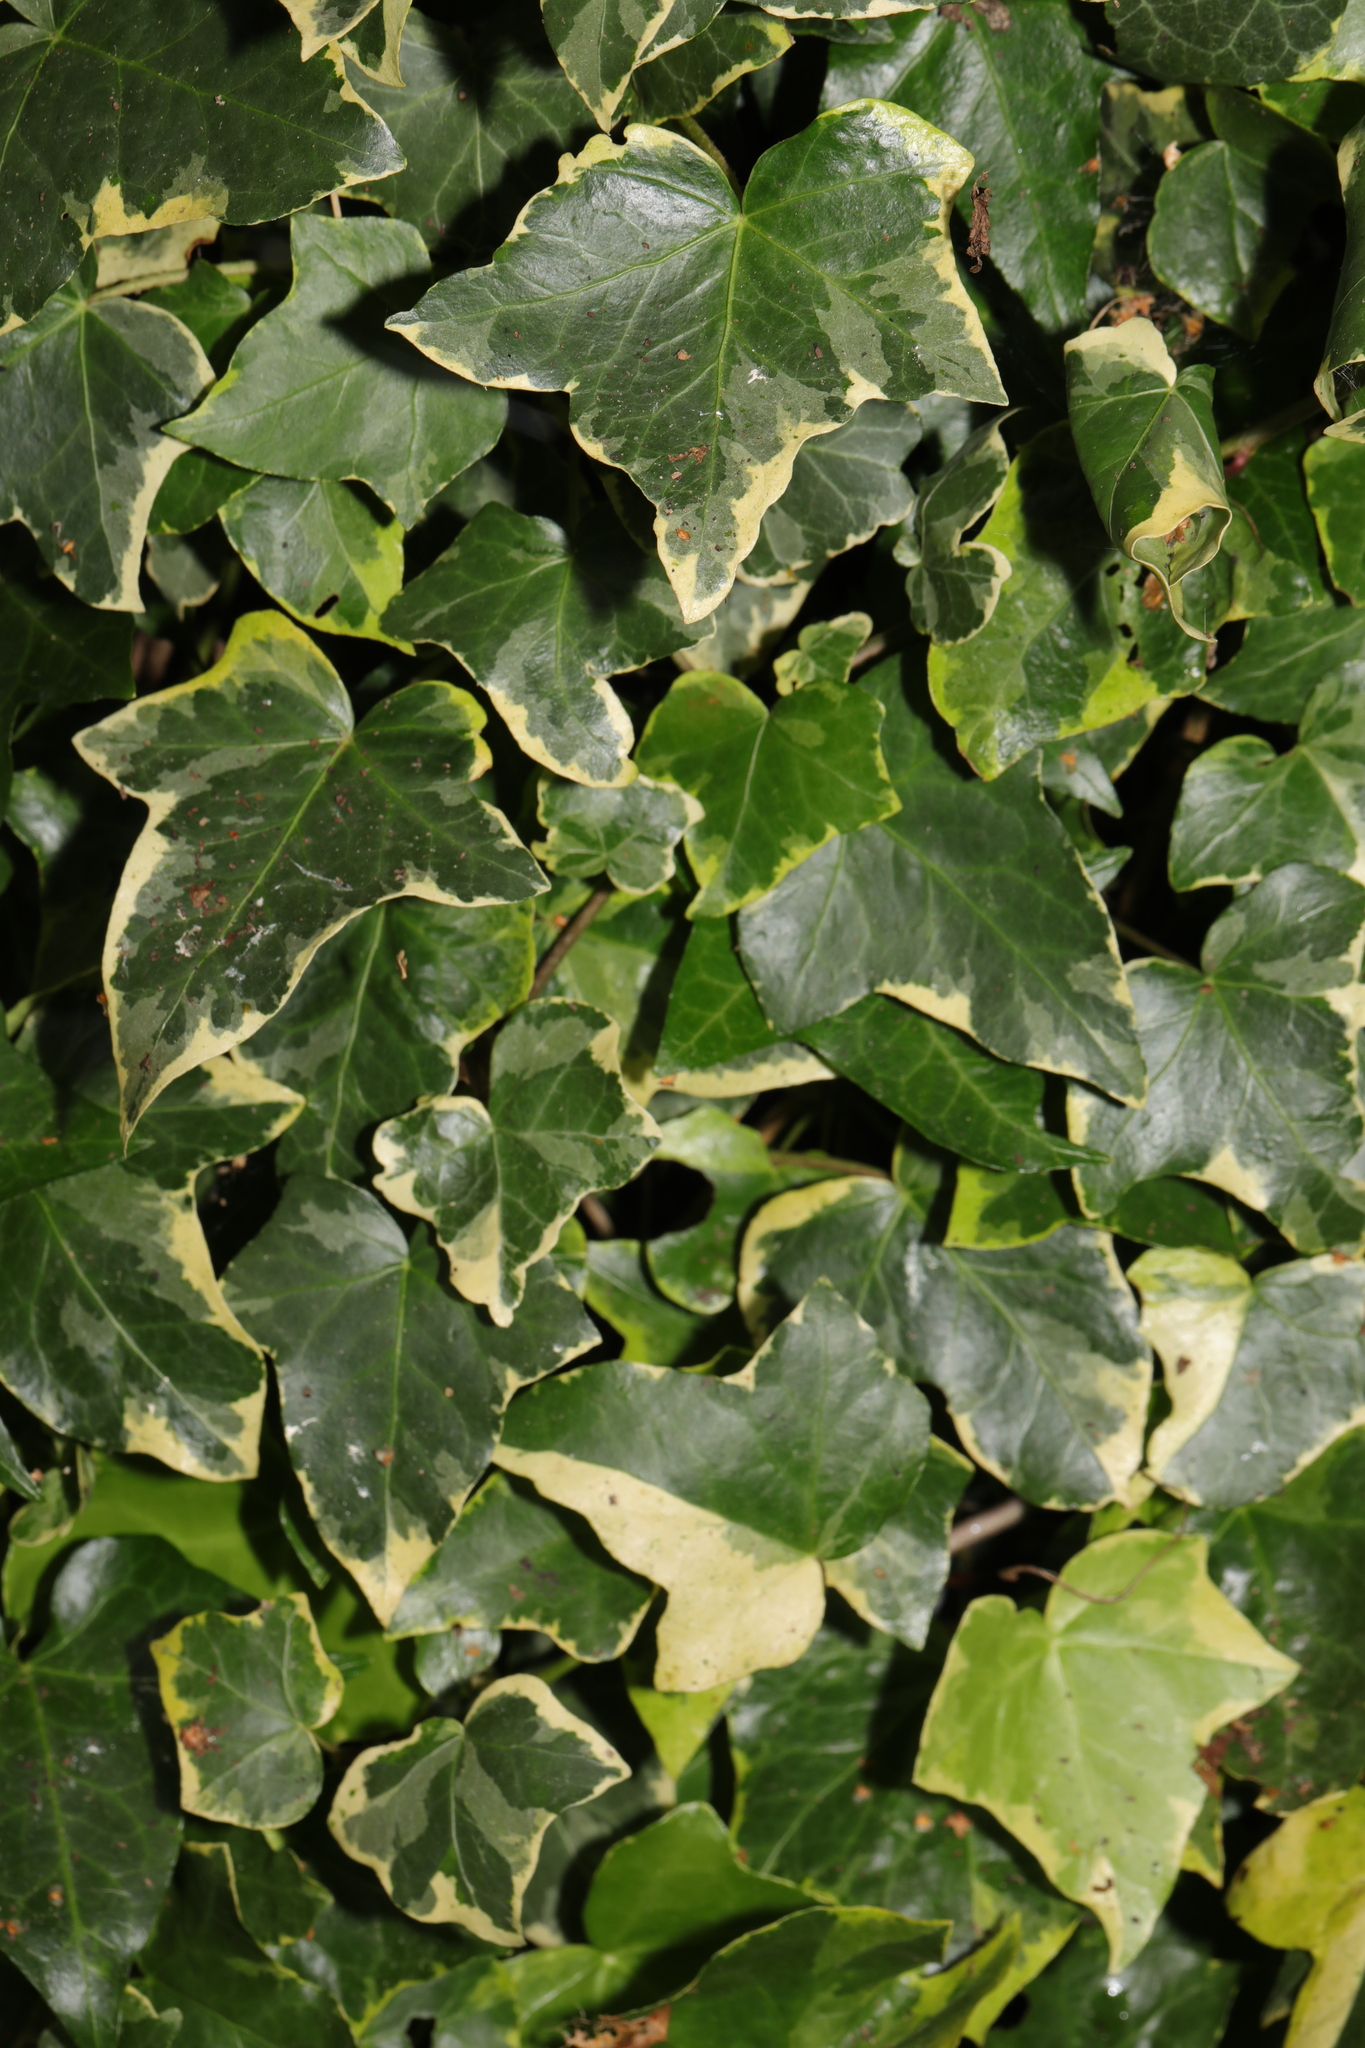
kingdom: Plantae
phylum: Tracheophyta
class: Magnoliopsida
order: Apiales
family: Araliaceae
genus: Hedera
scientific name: Hedera helix
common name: Ivy
